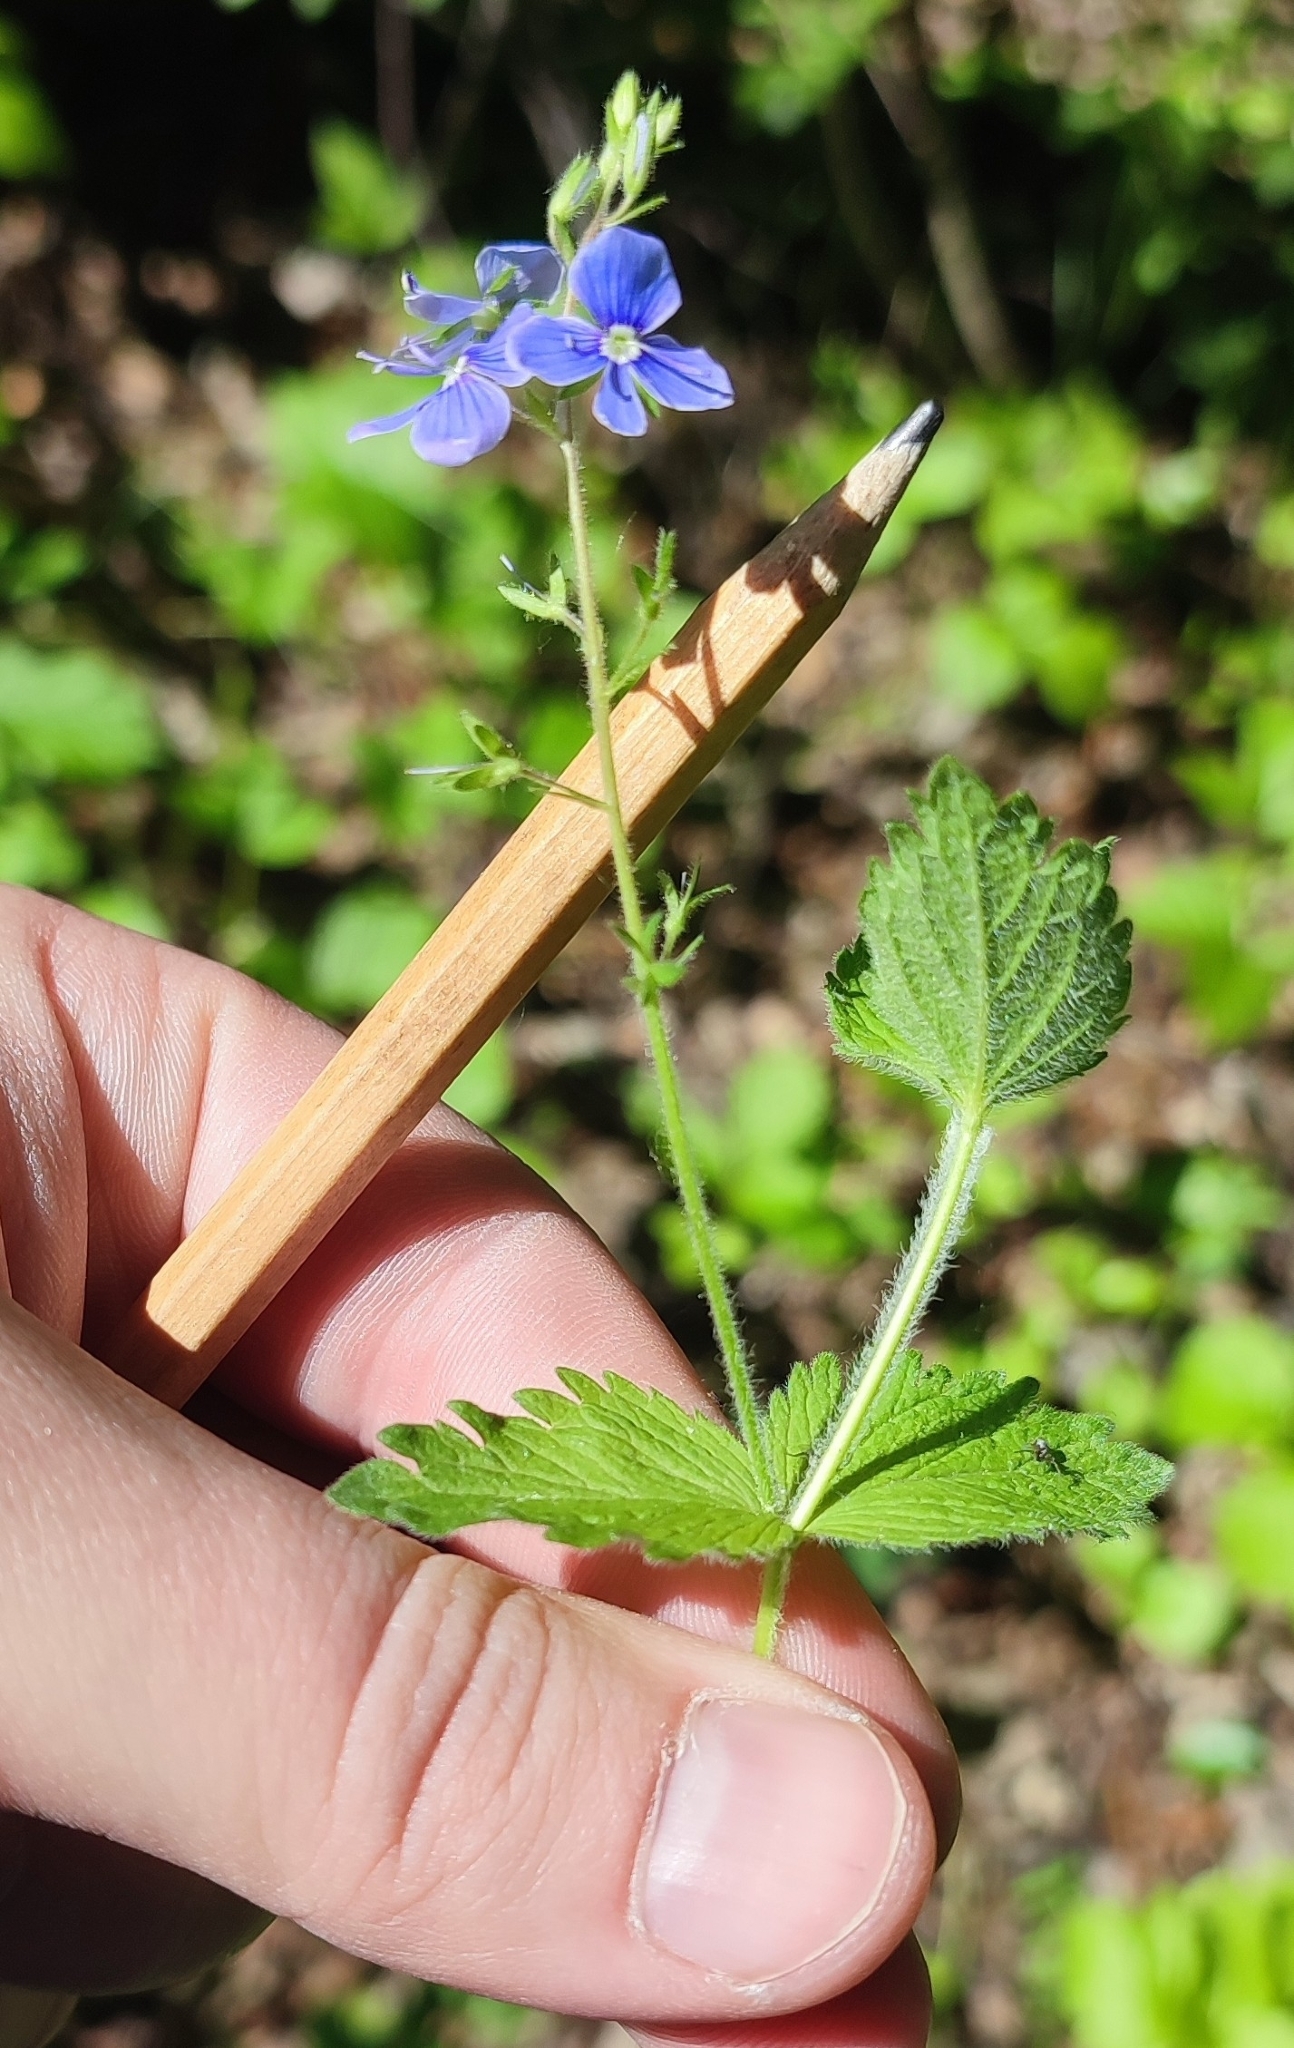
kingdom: Plantae
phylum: Tracheophyta
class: Magnoliopsida
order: Lamiales
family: Plantaginaceae
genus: Veronica
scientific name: Veronica chamaedrys
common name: Germander speedwell
